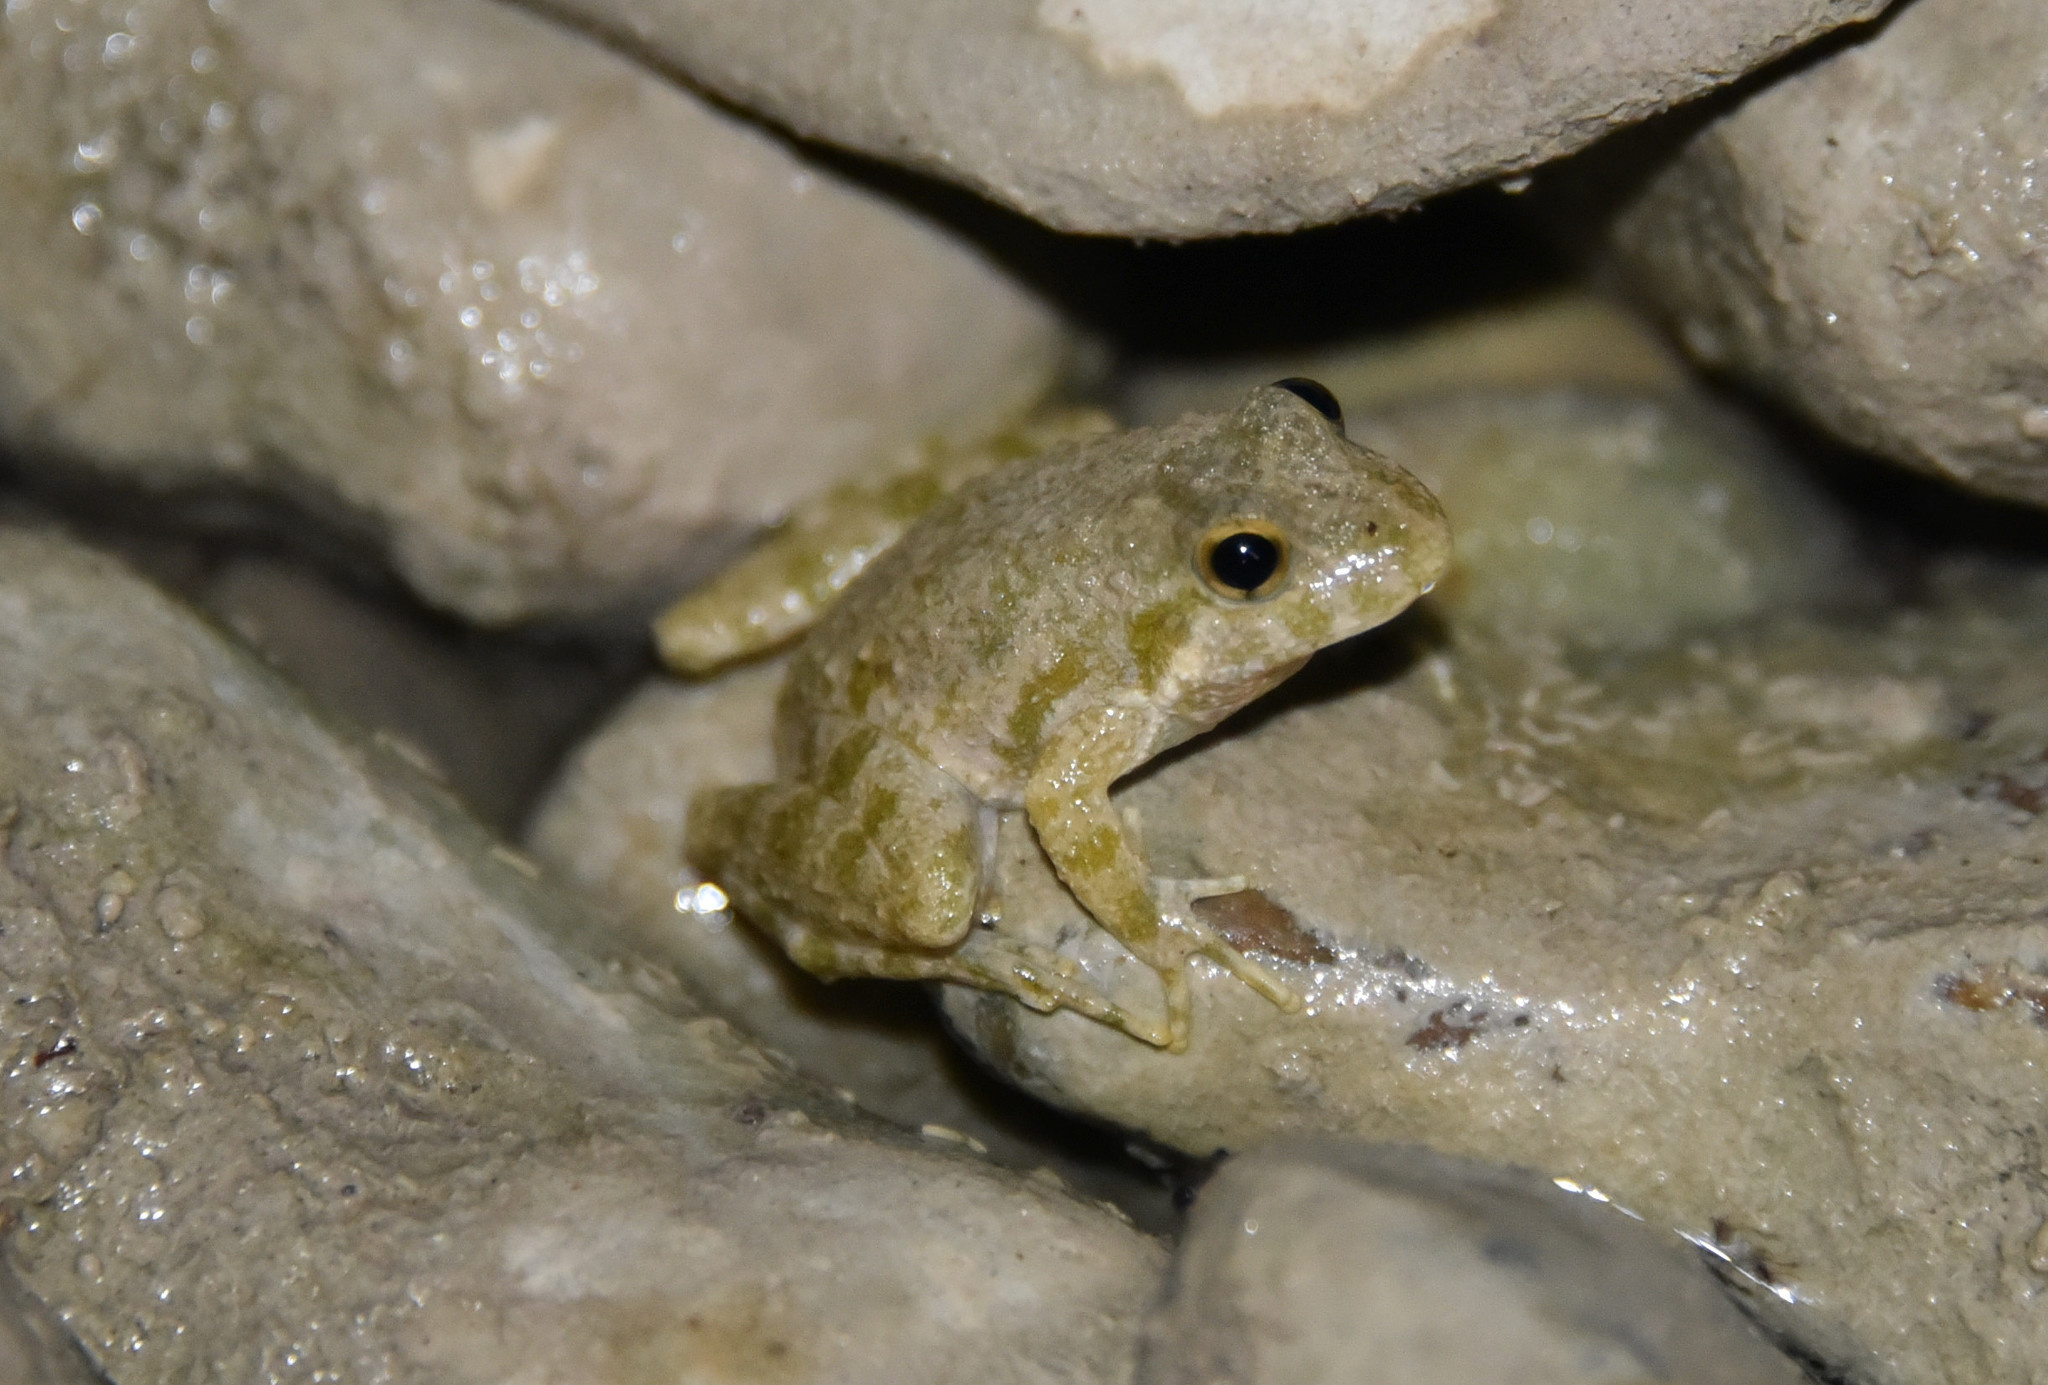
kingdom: Animalia
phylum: Chordata
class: Amphibia
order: Anura
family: Hylidae
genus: Acris
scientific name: Acris blanchardi
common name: Blanchard's cricket frog
